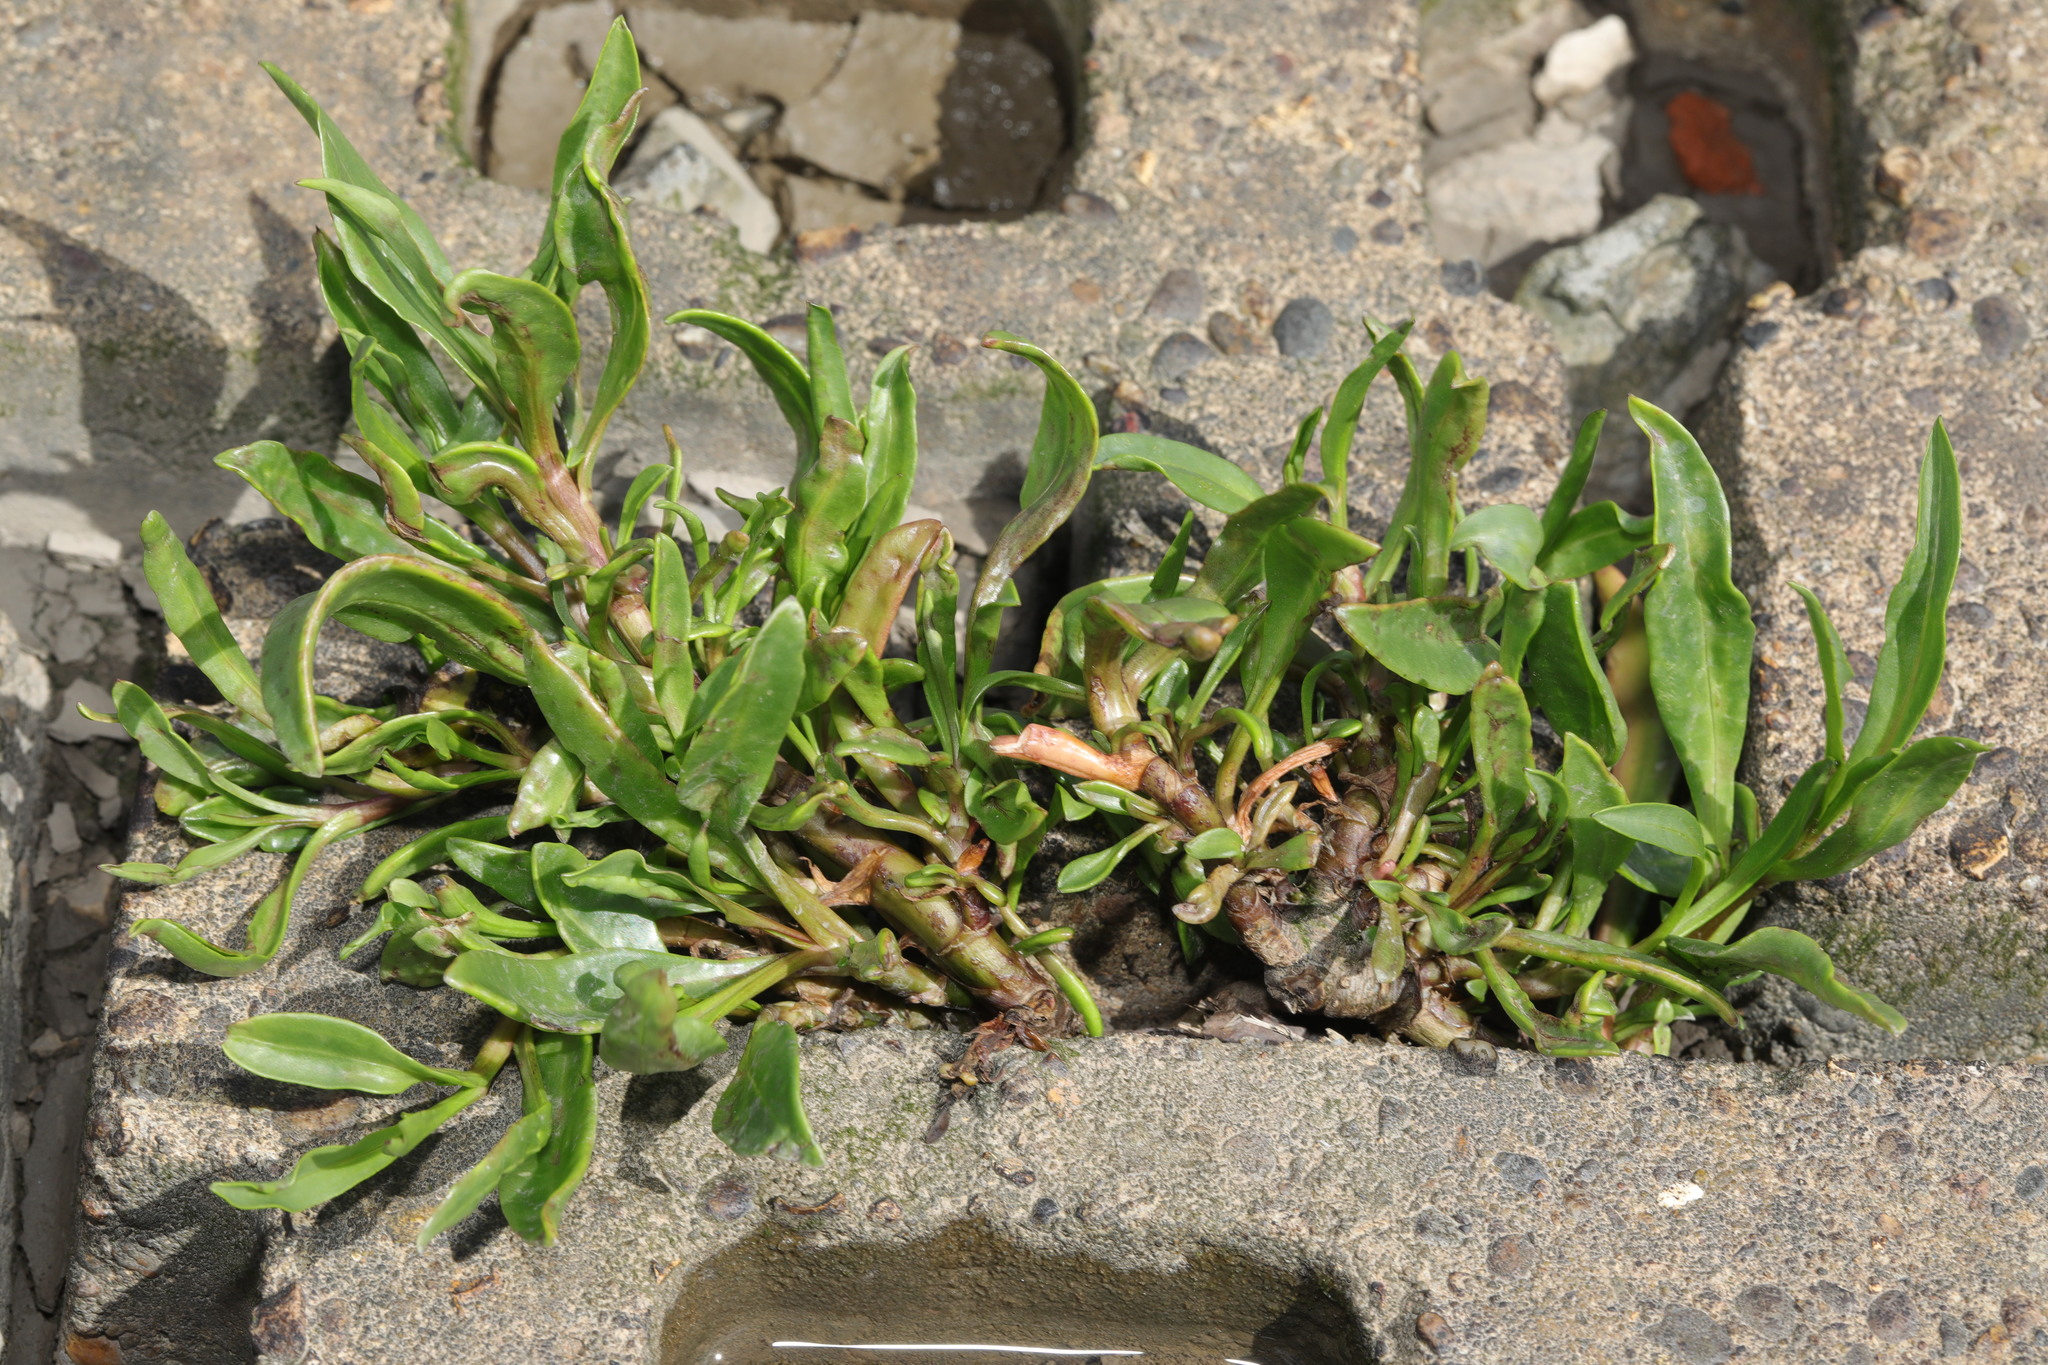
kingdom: Plantae
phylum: Tracheophyta
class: Magnoliopsida
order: Asterales
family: Asteraceae
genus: Tripolium
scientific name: Tripolium pannonicum
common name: Sea aster
